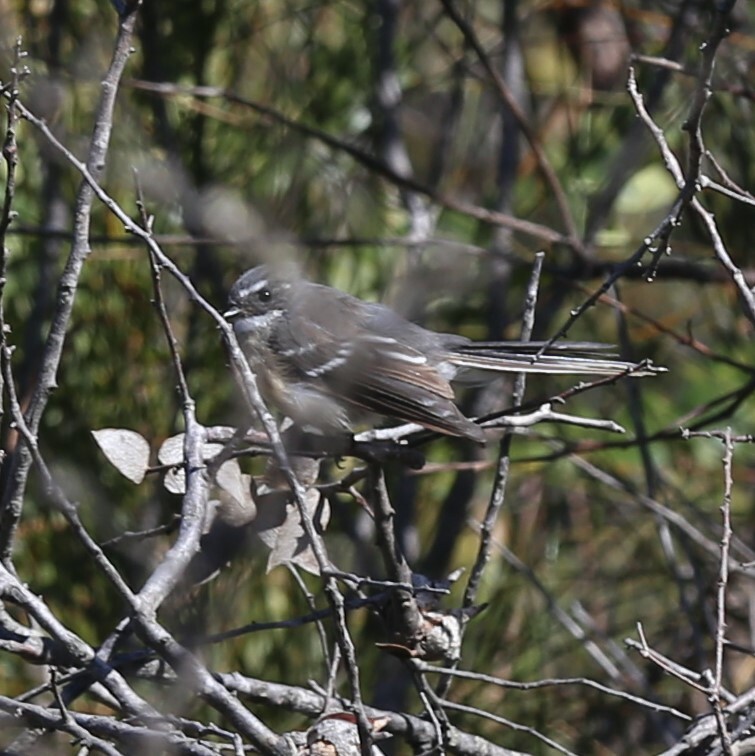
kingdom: Animalia
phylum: Chordata
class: Aves
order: Passeriformes
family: Rhipiduridae
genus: Rhipidura
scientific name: Rhipidura albiscapa
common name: Grey fantail
